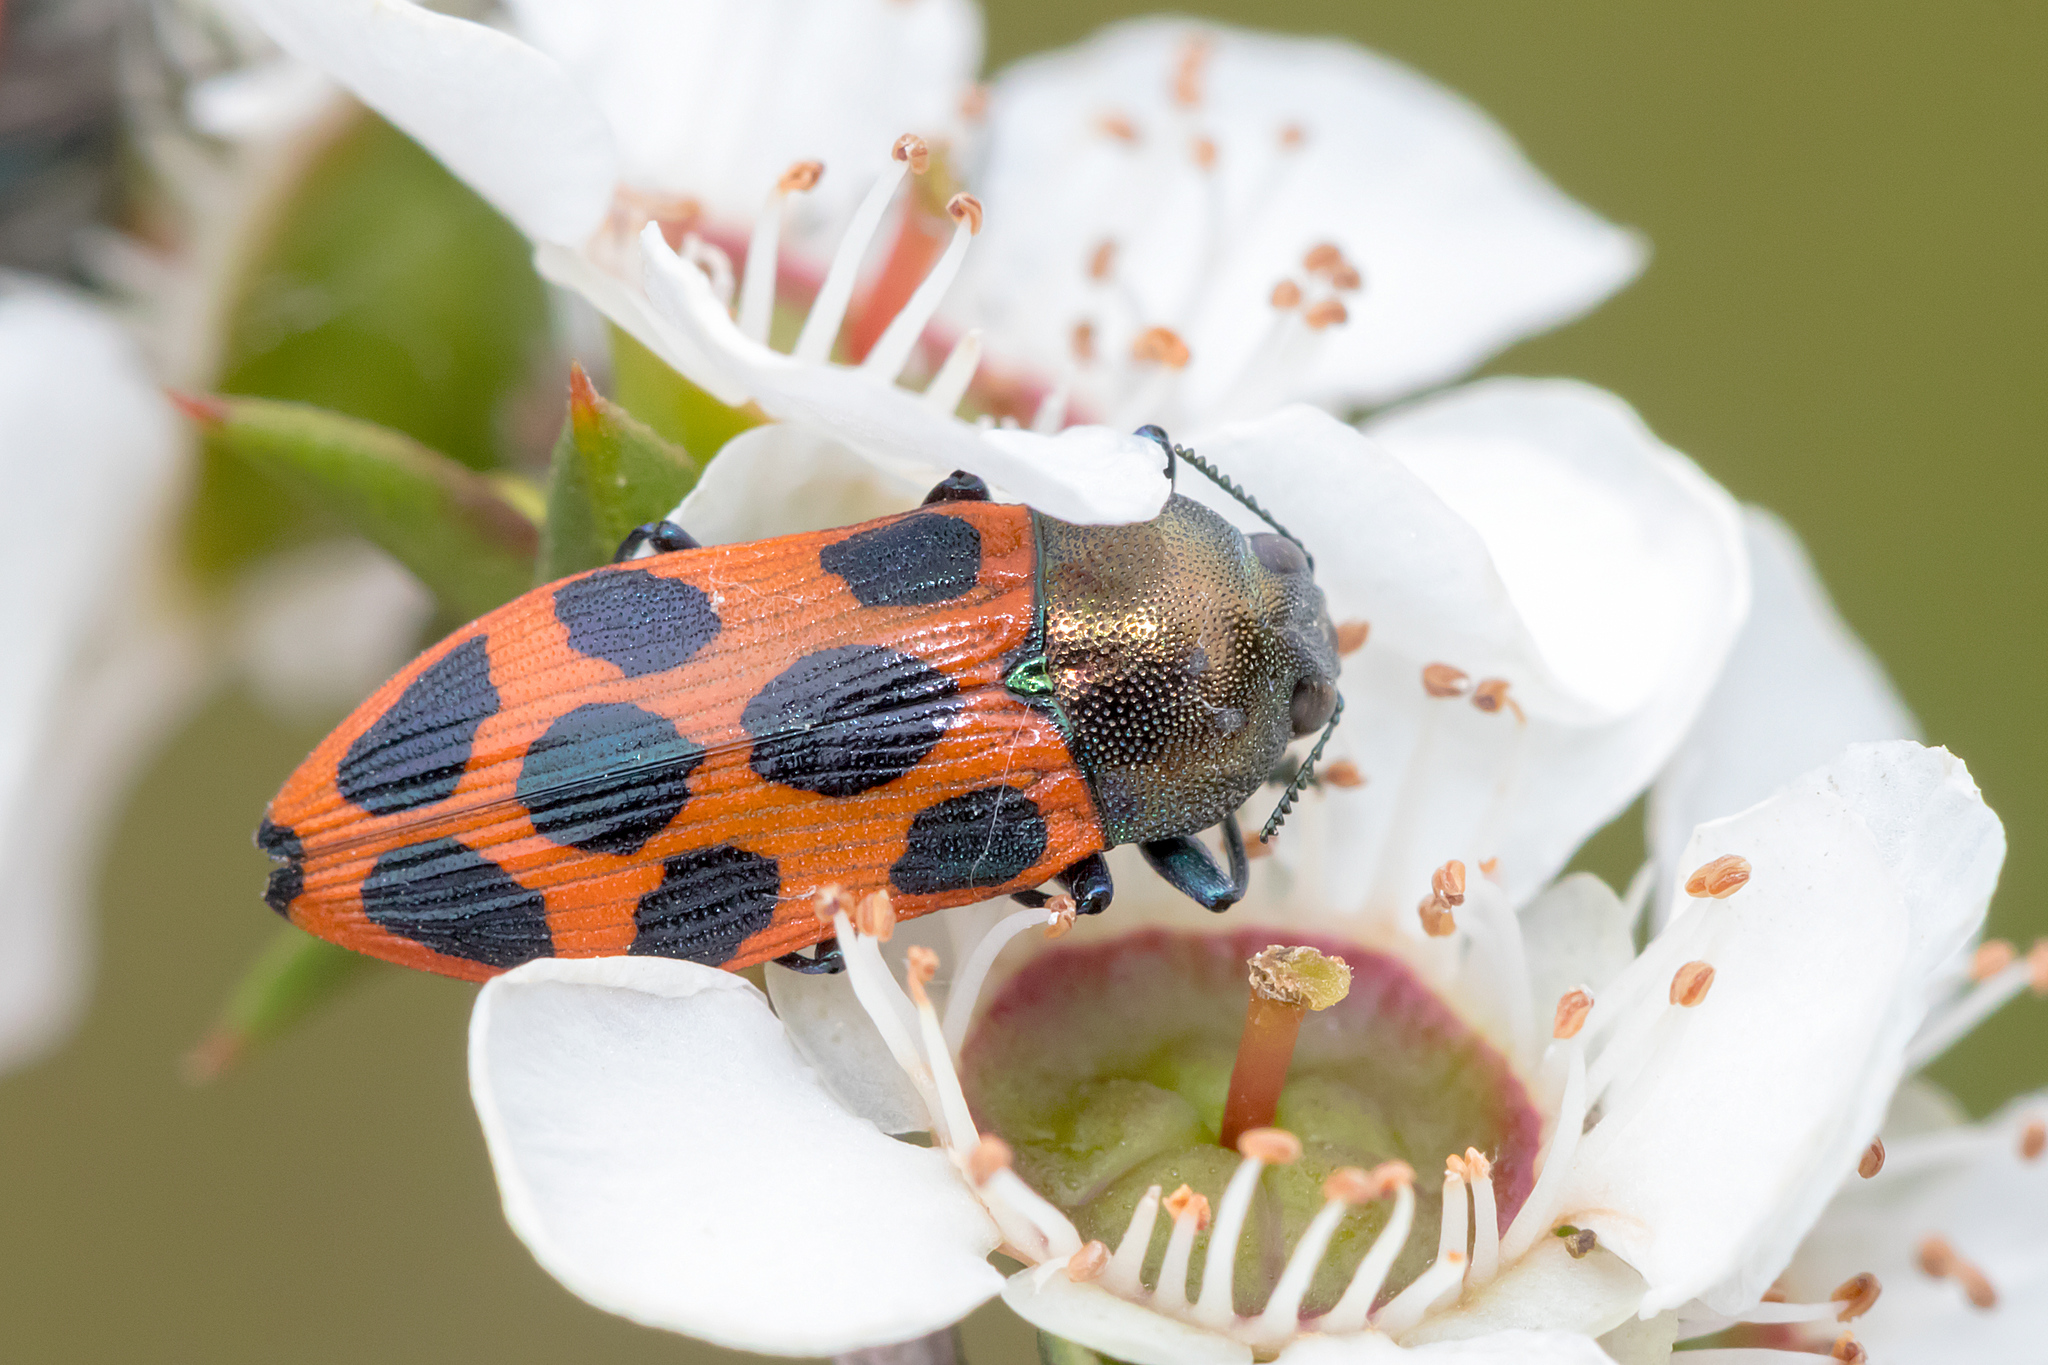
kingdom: Animalia
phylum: Arthropoda
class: Insecta
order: Coleoptera
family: Buprestidae
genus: Castiarina
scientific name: Castiarina octomaculata
